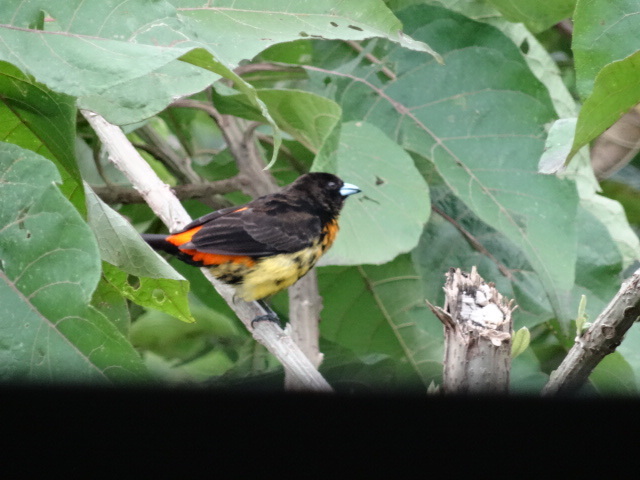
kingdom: Animalia
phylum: Chordata
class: Aves
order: Passeriformes
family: Thraupidae
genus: Ramphocelus
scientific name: Ramphocelus flammigerus
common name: Flame-rumped tanager
